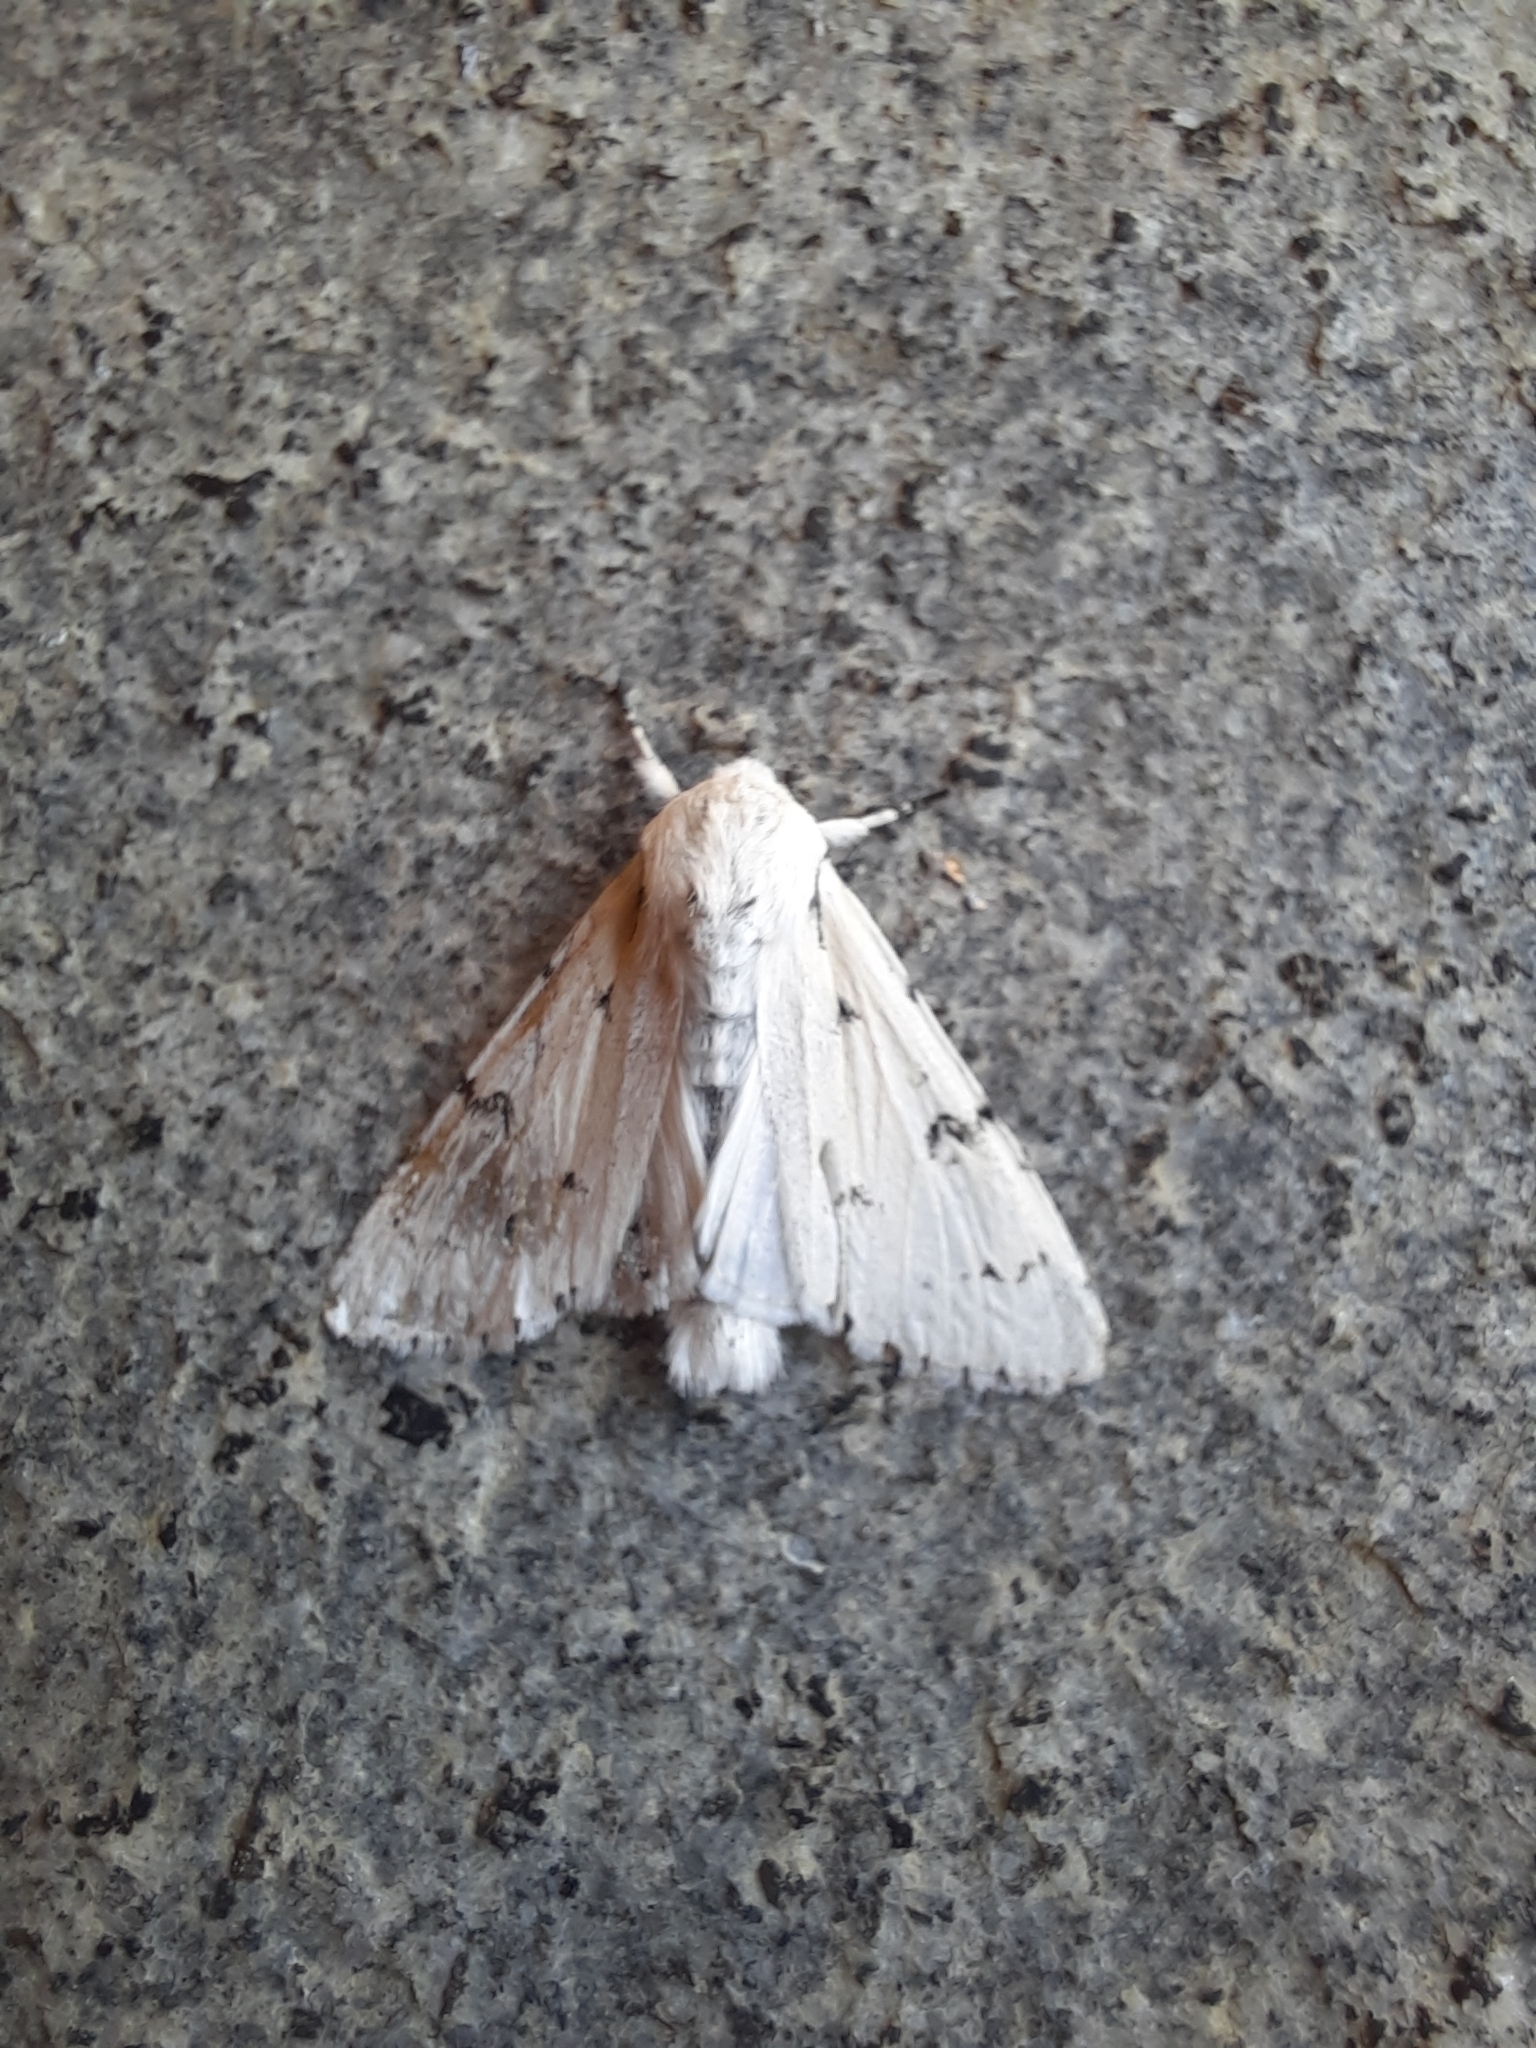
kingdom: Animalia
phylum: Arthropoda
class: Insecta
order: Lepidoptera
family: Noctuidae
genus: Acronicta
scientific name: Acronicta leporina
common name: Miller
